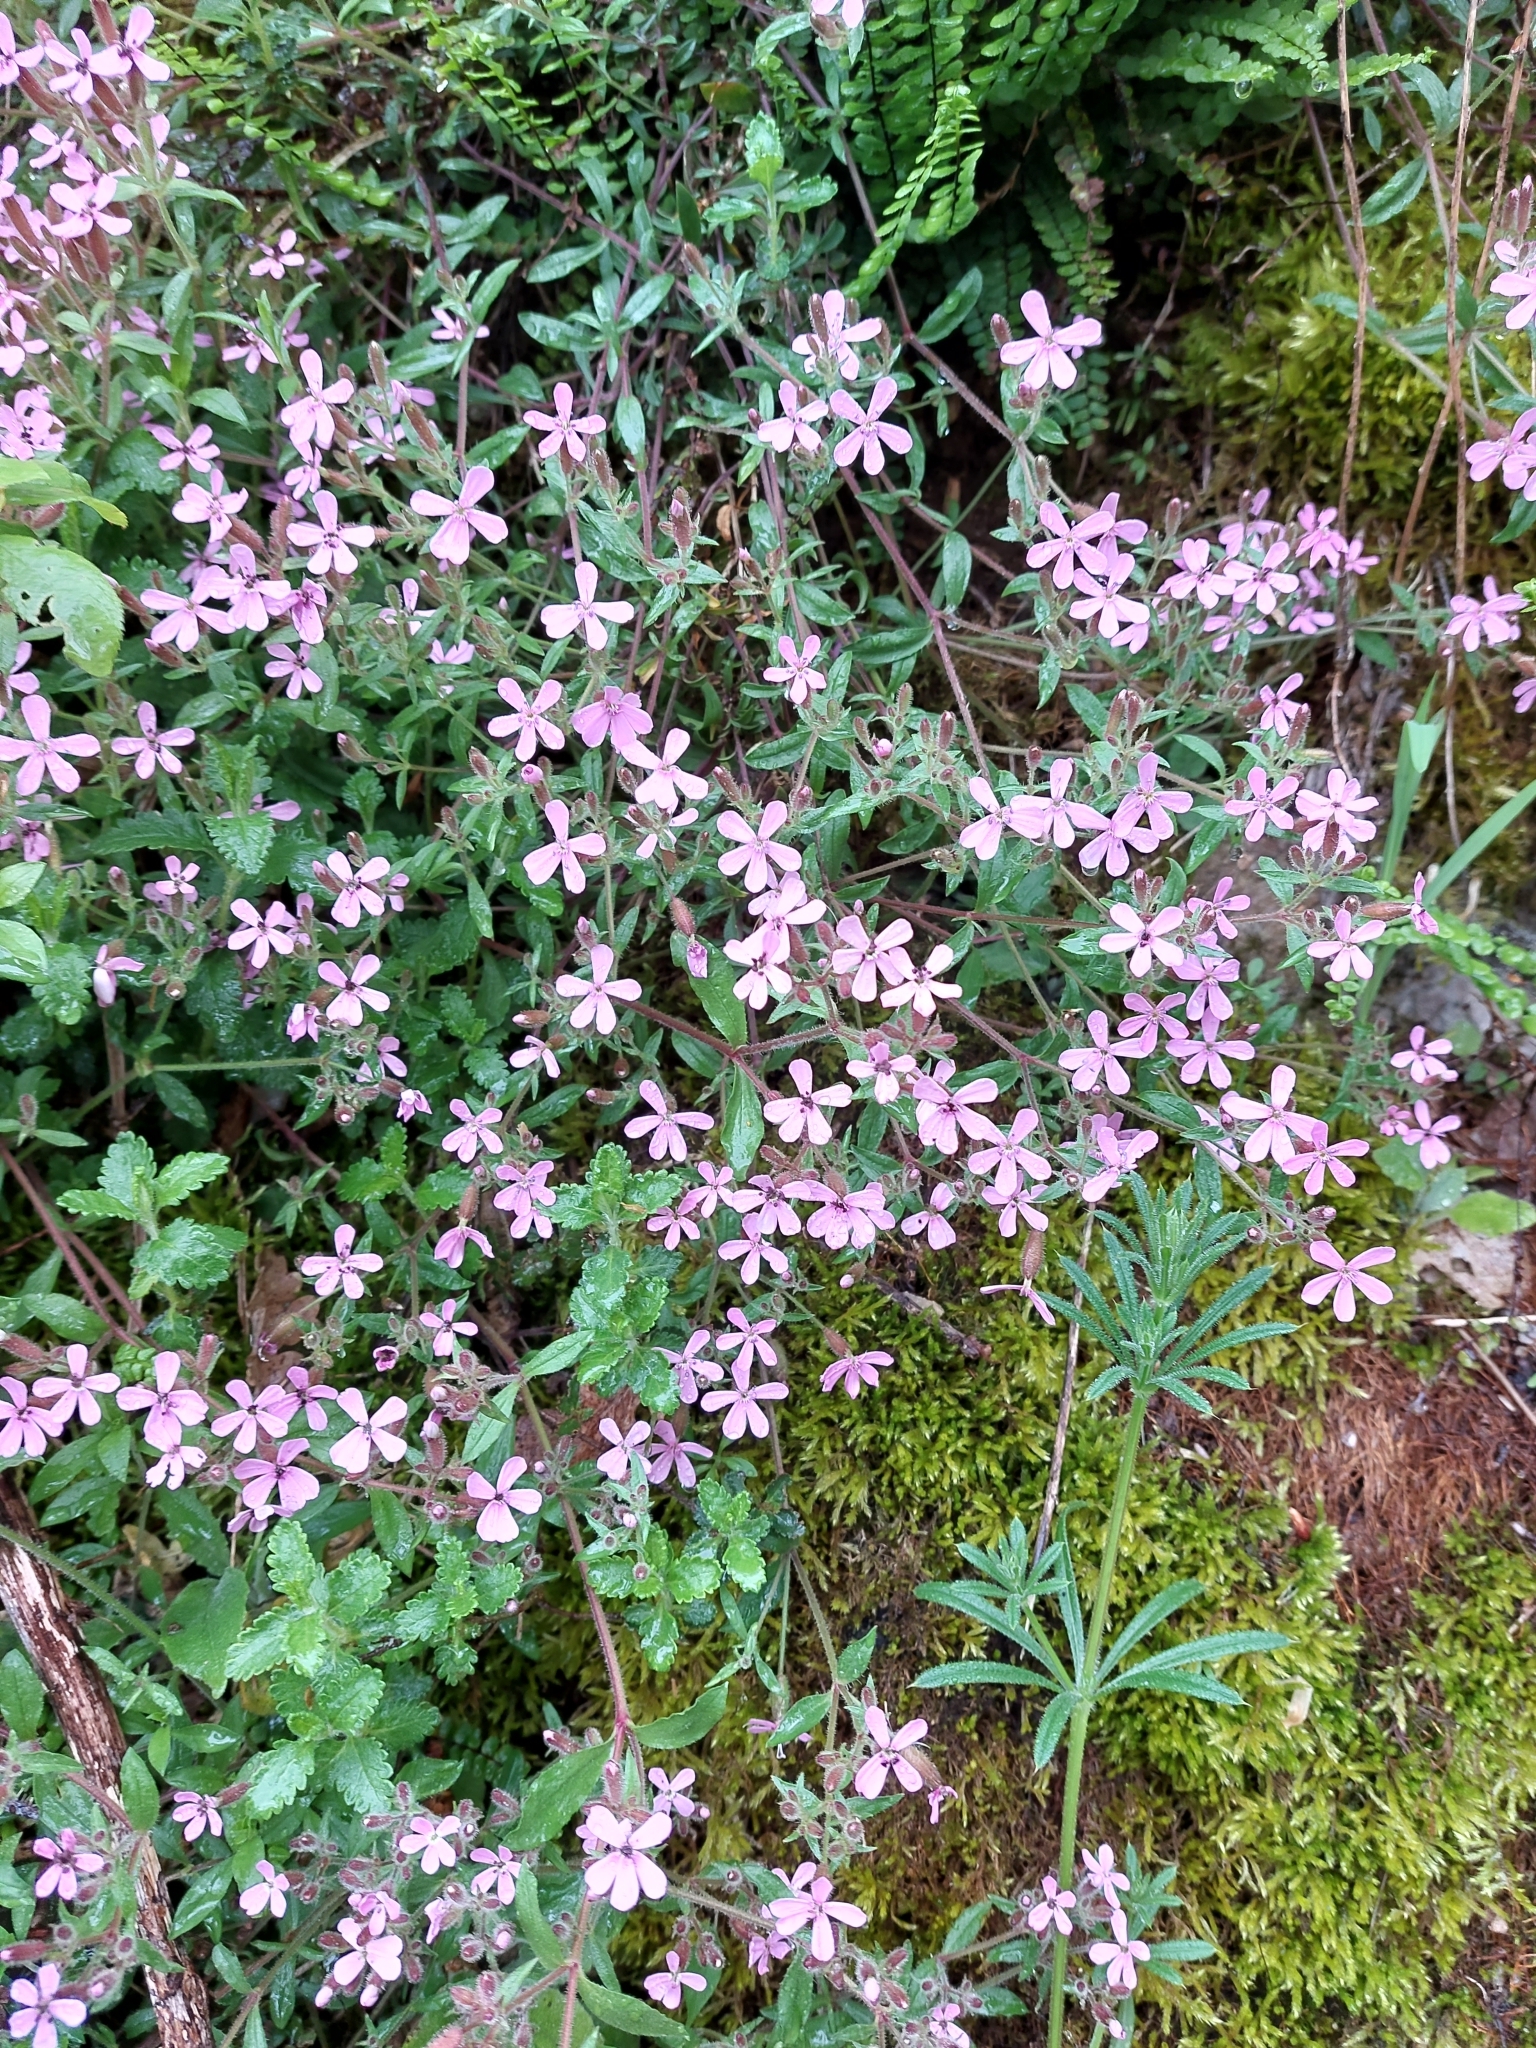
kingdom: Plantae
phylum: Tracheophyta
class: Magnoliopsida
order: Caryophyllales
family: Caryophyllaceae
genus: Saponaria
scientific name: Saponaria ocymoides
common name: Rock soapwort
